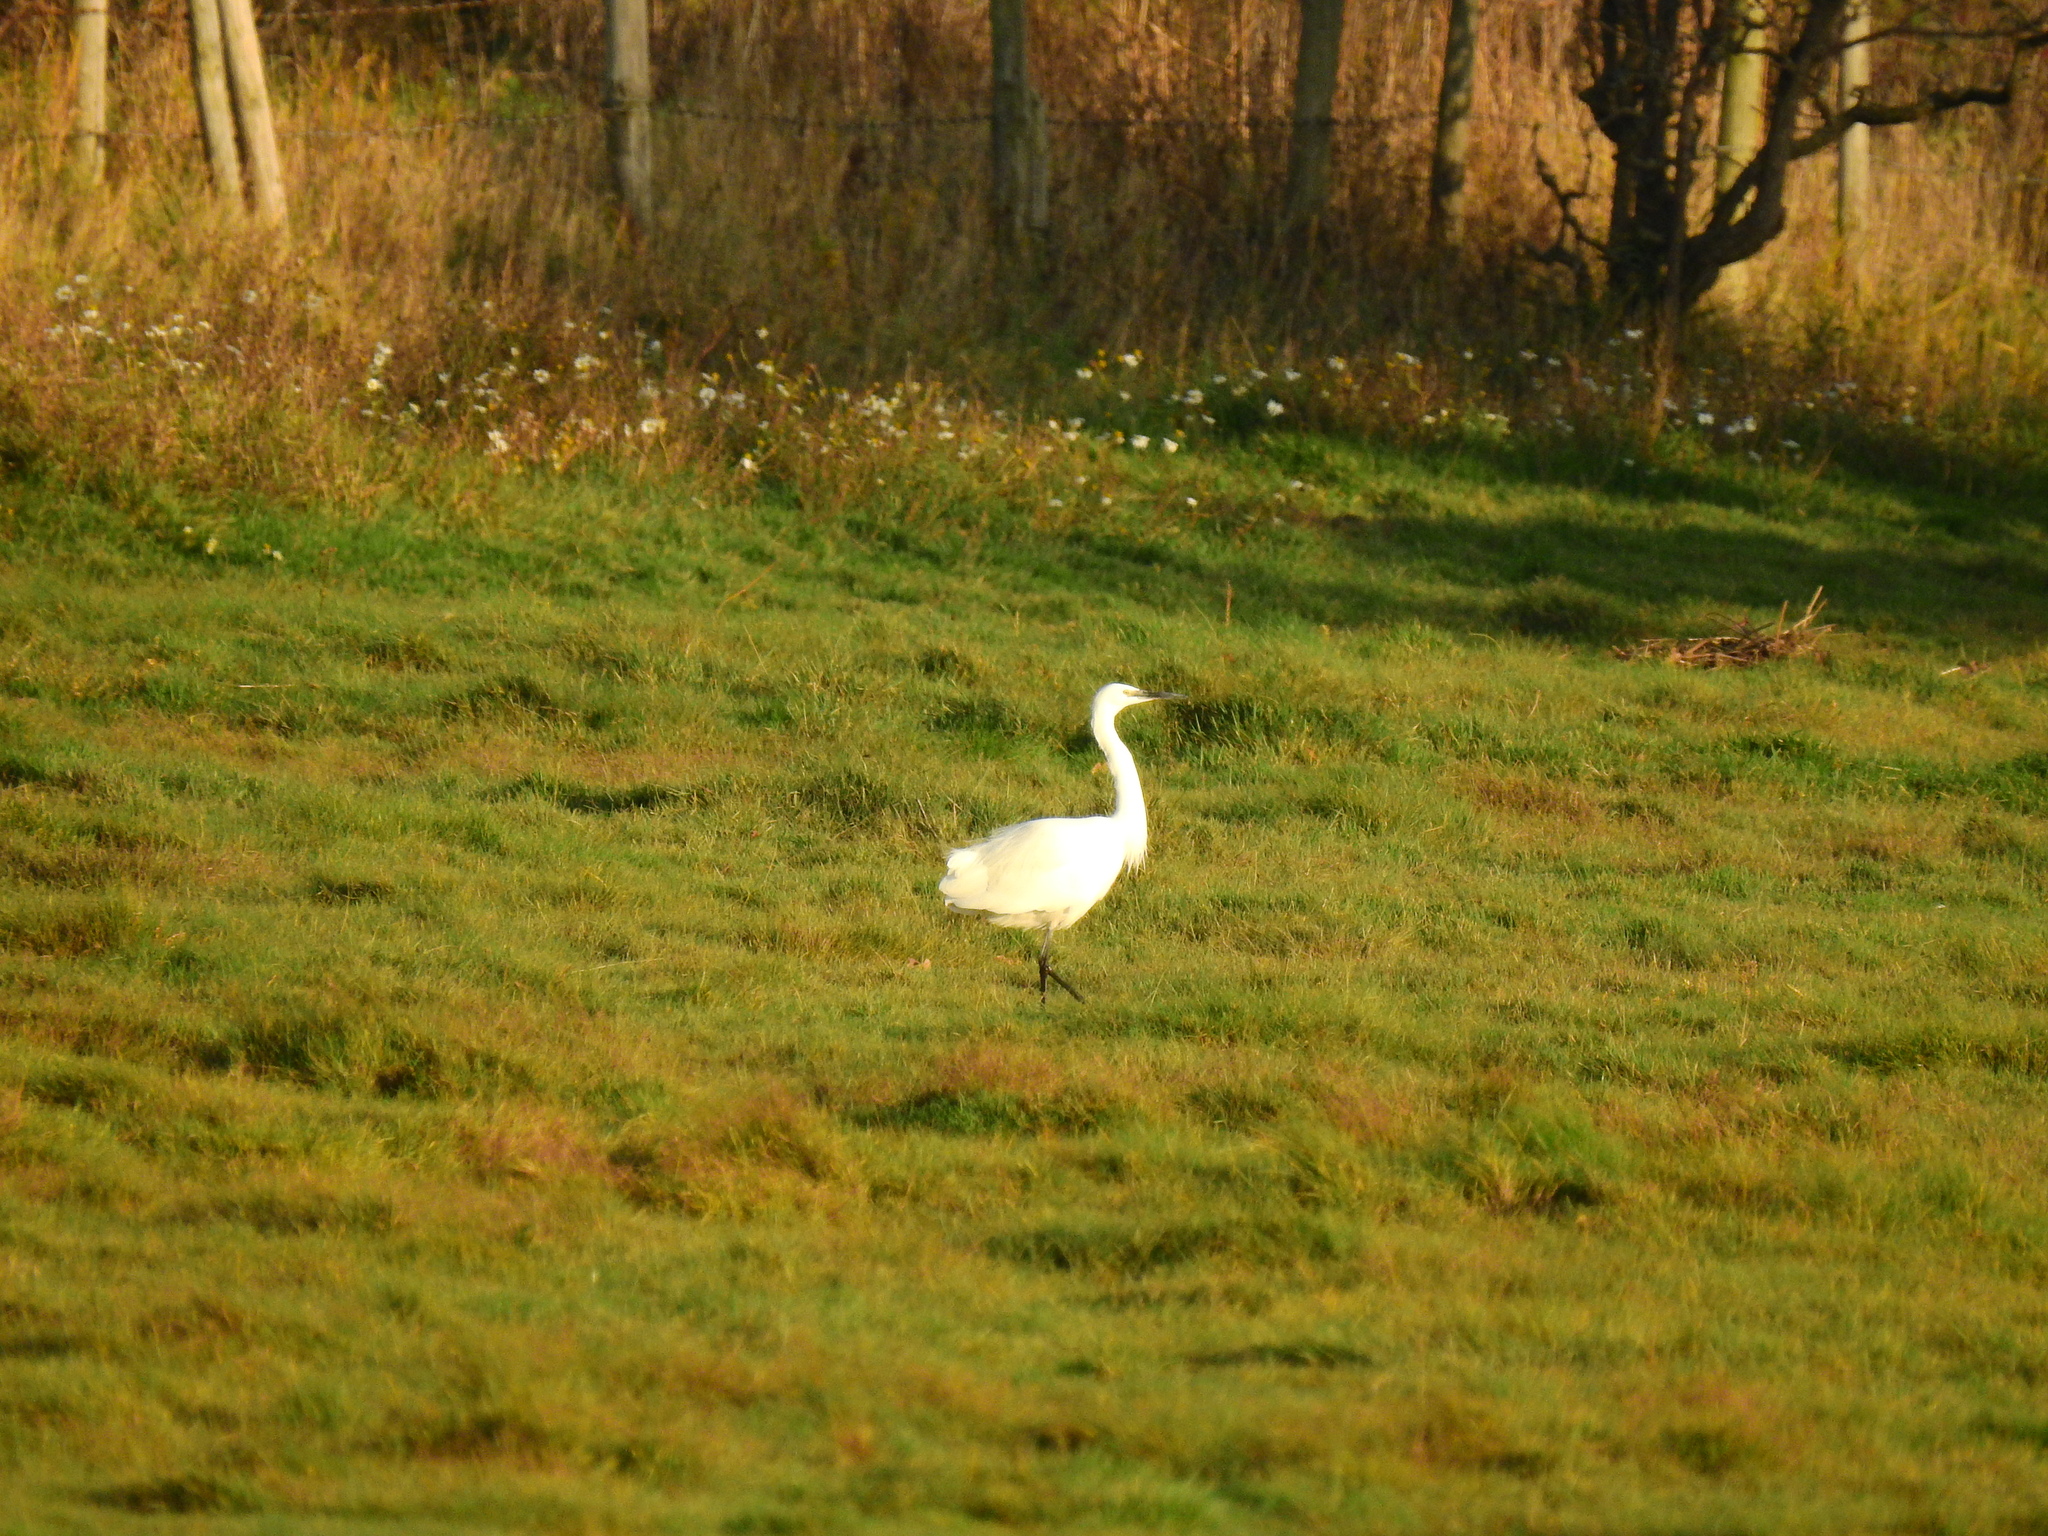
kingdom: Animalia
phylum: Chordata
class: Aves
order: Pelecaniformes
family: Ardeidae
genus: Egretta
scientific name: Egretta garzetta
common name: Little egret
